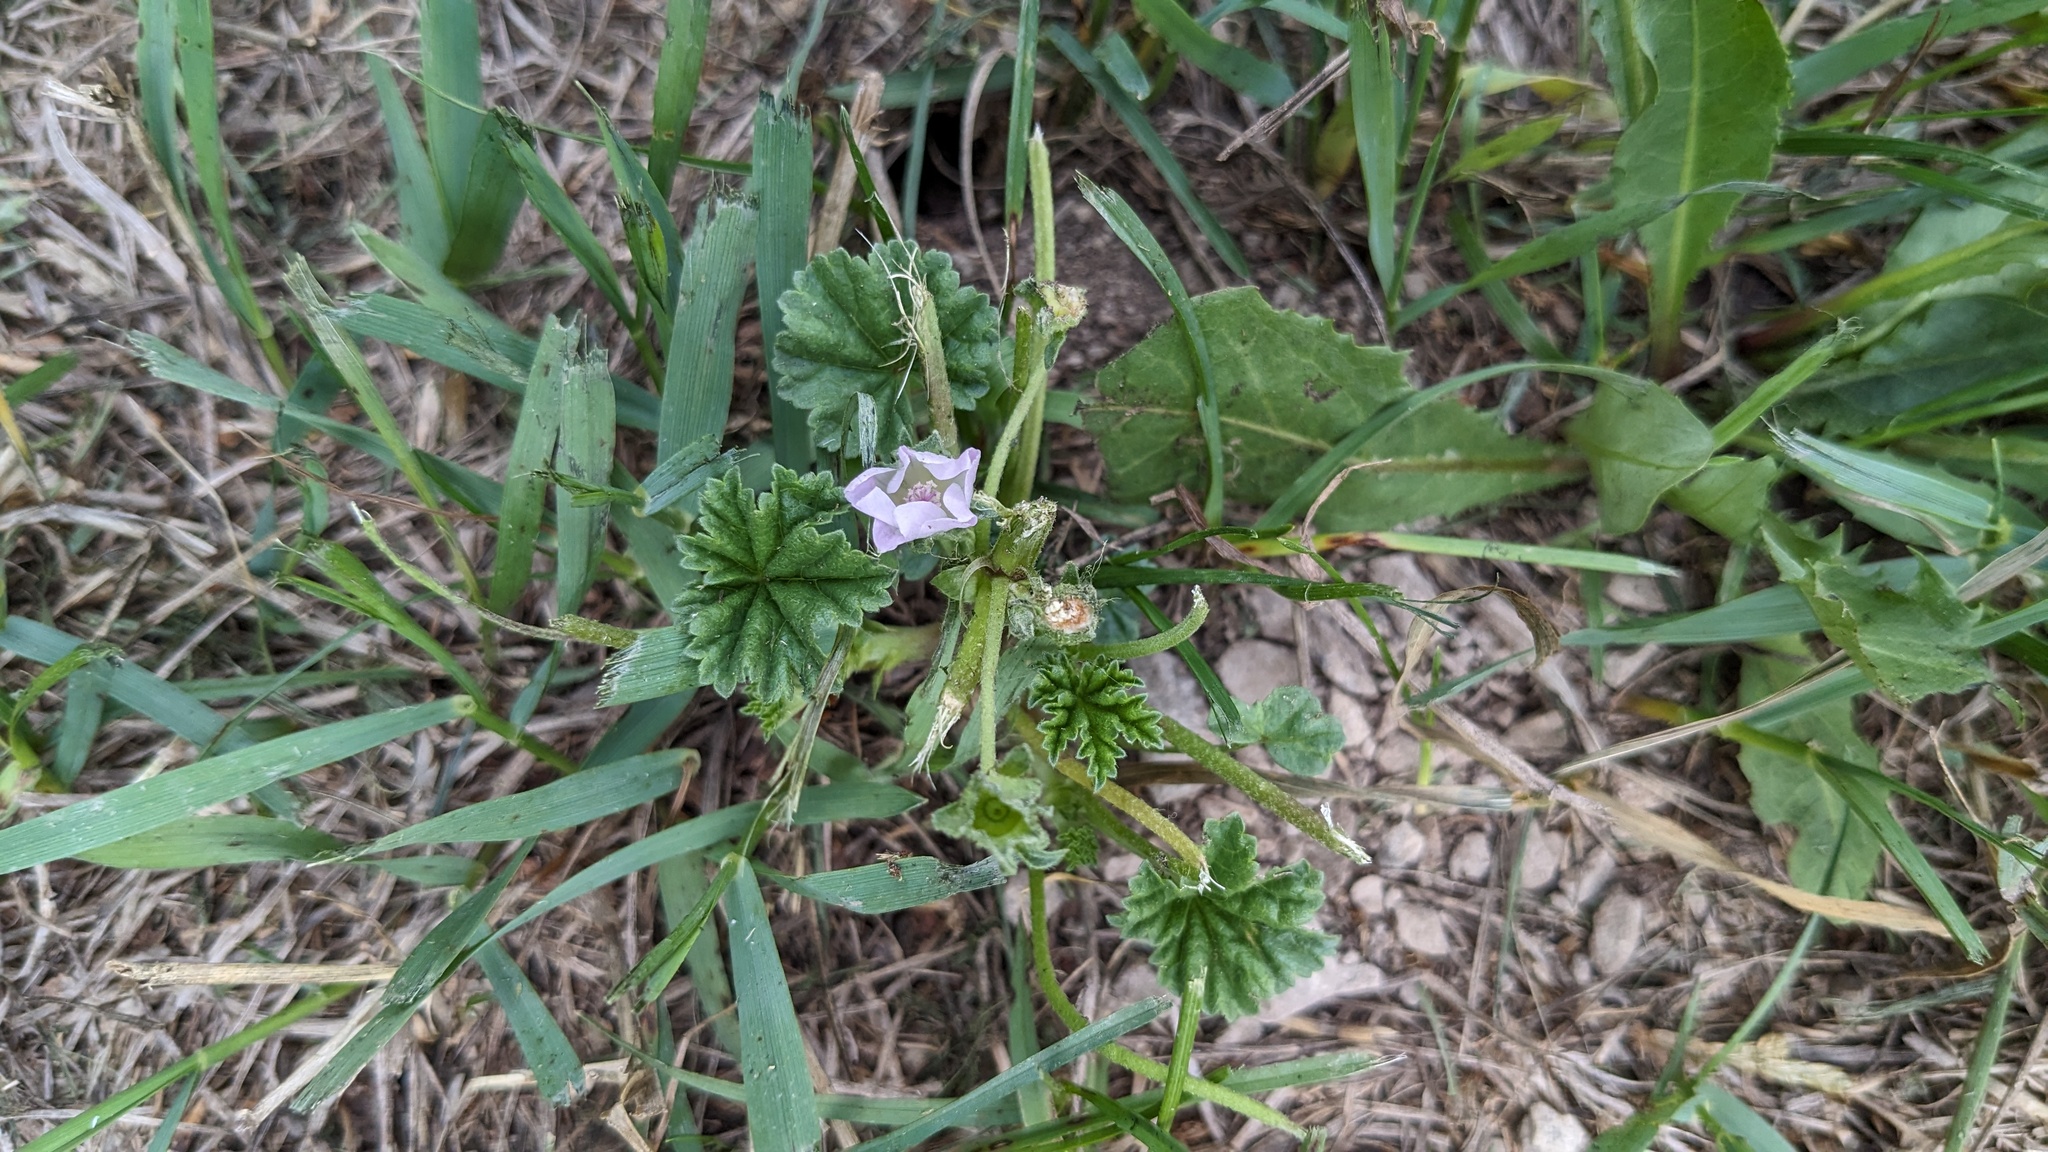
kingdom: Plantae
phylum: Tracheophyta
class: Magnoliopsida
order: Malvales
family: Malvaceae
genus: Malva
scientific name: Malva neglecta
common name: Common mallow
